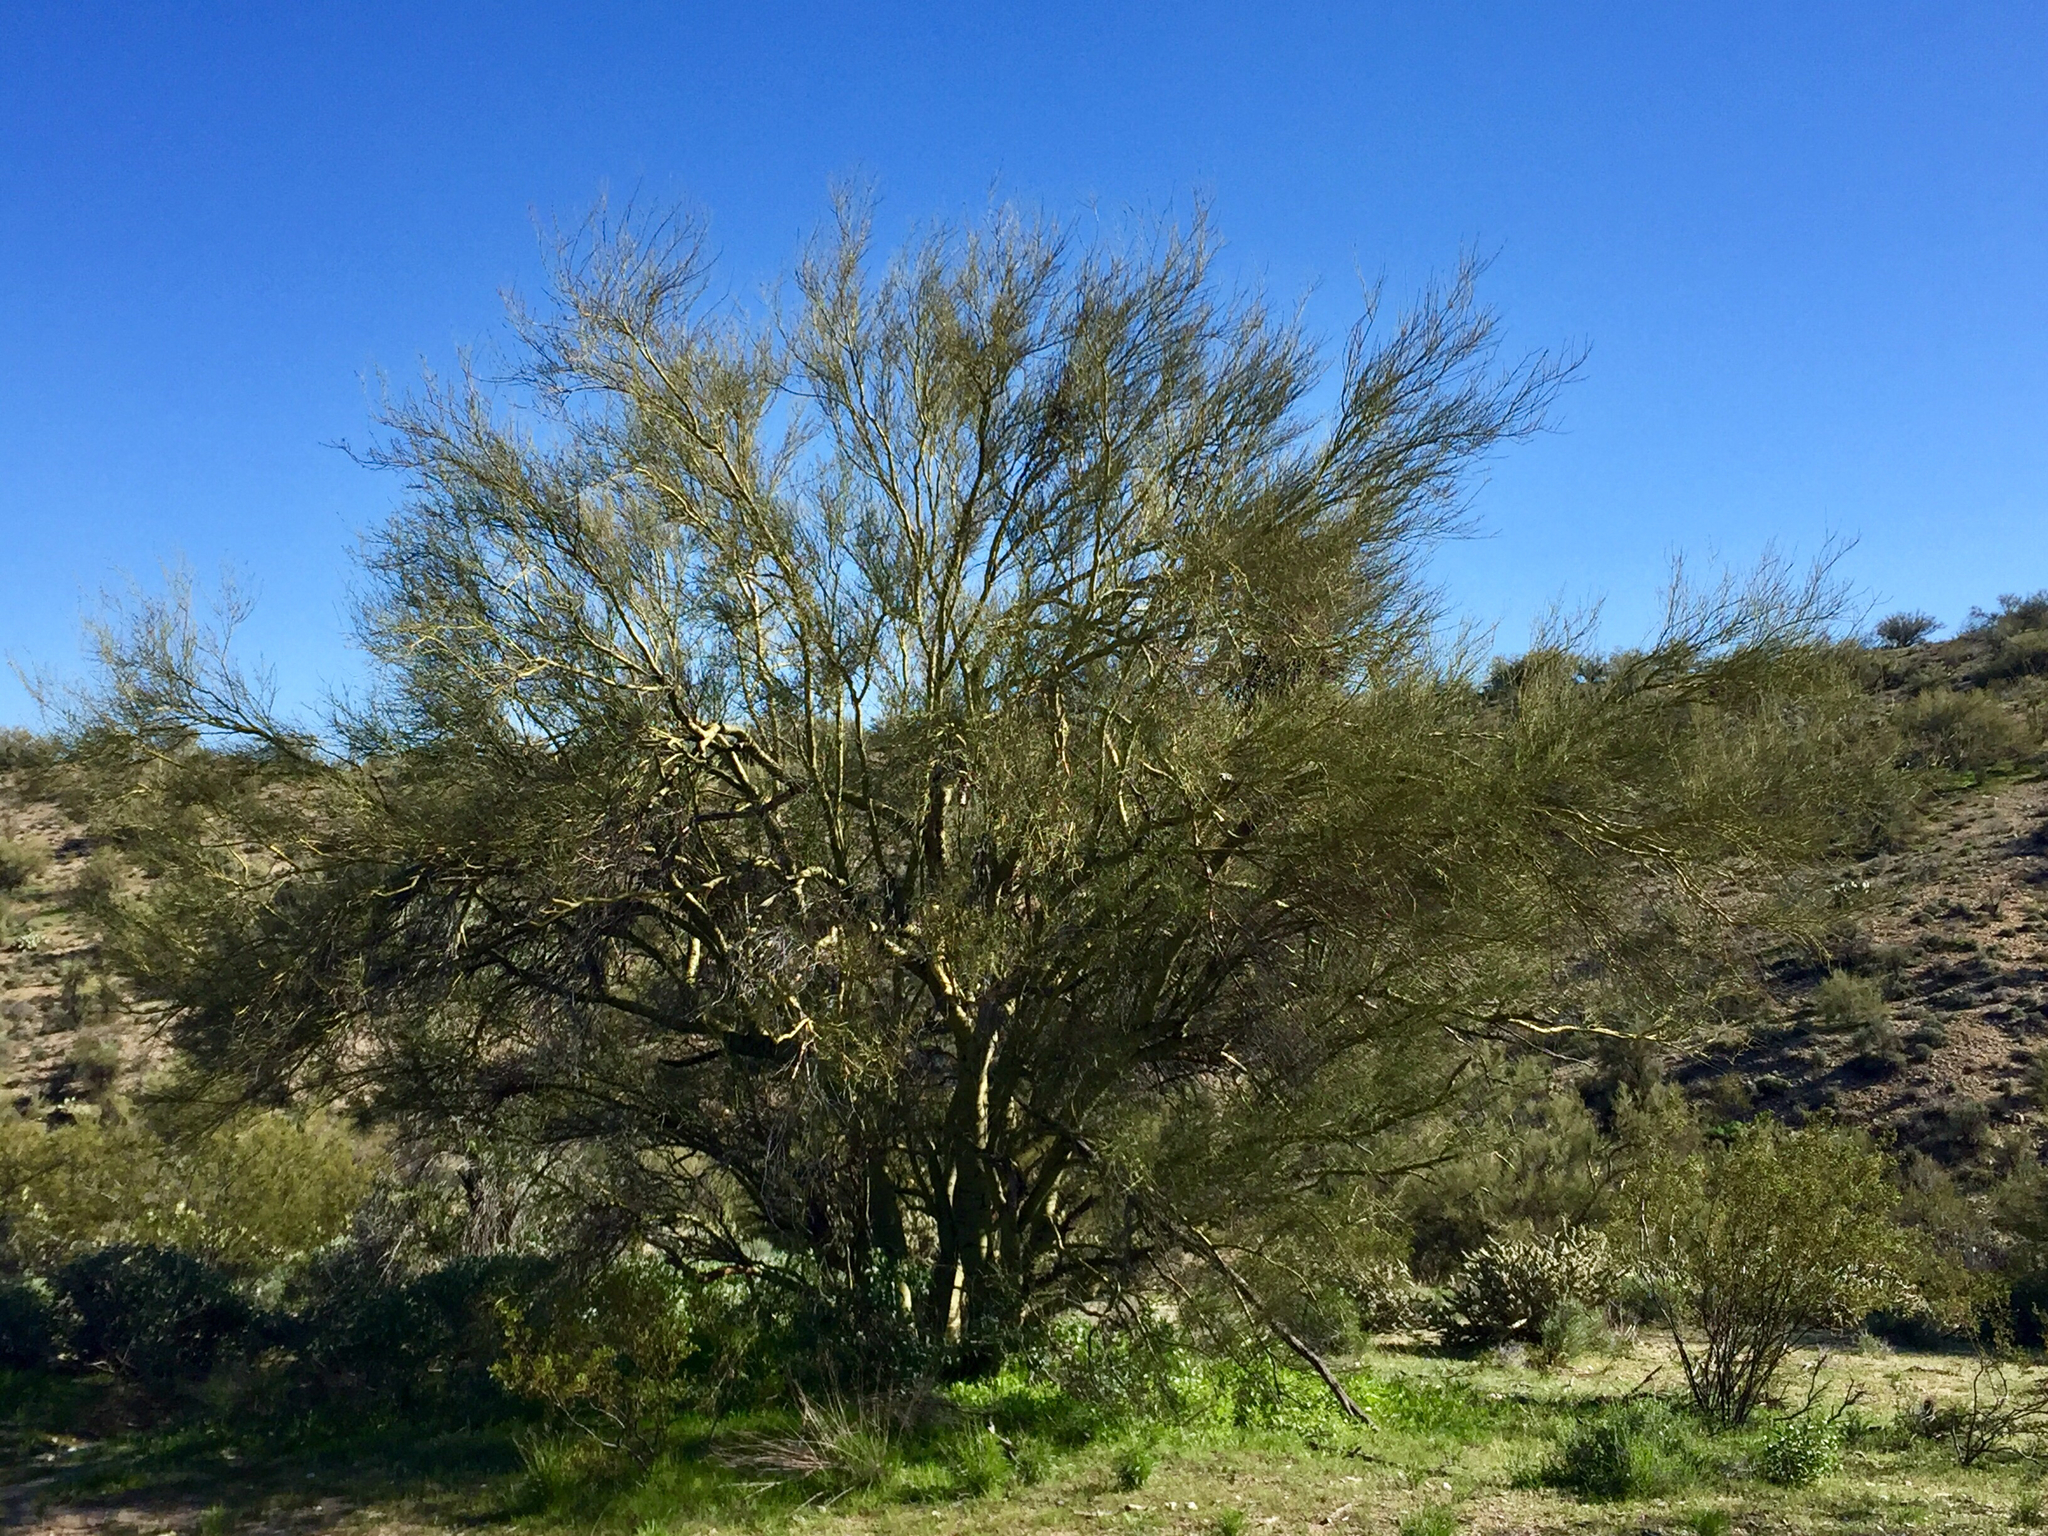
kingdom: Plantae
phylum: Tracheophyta
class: Magnoliopsida
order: Fabales
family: Fabaceae
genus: Parkinsonia
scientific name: Parkinsonia microphylla
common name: Yellow paloverde
